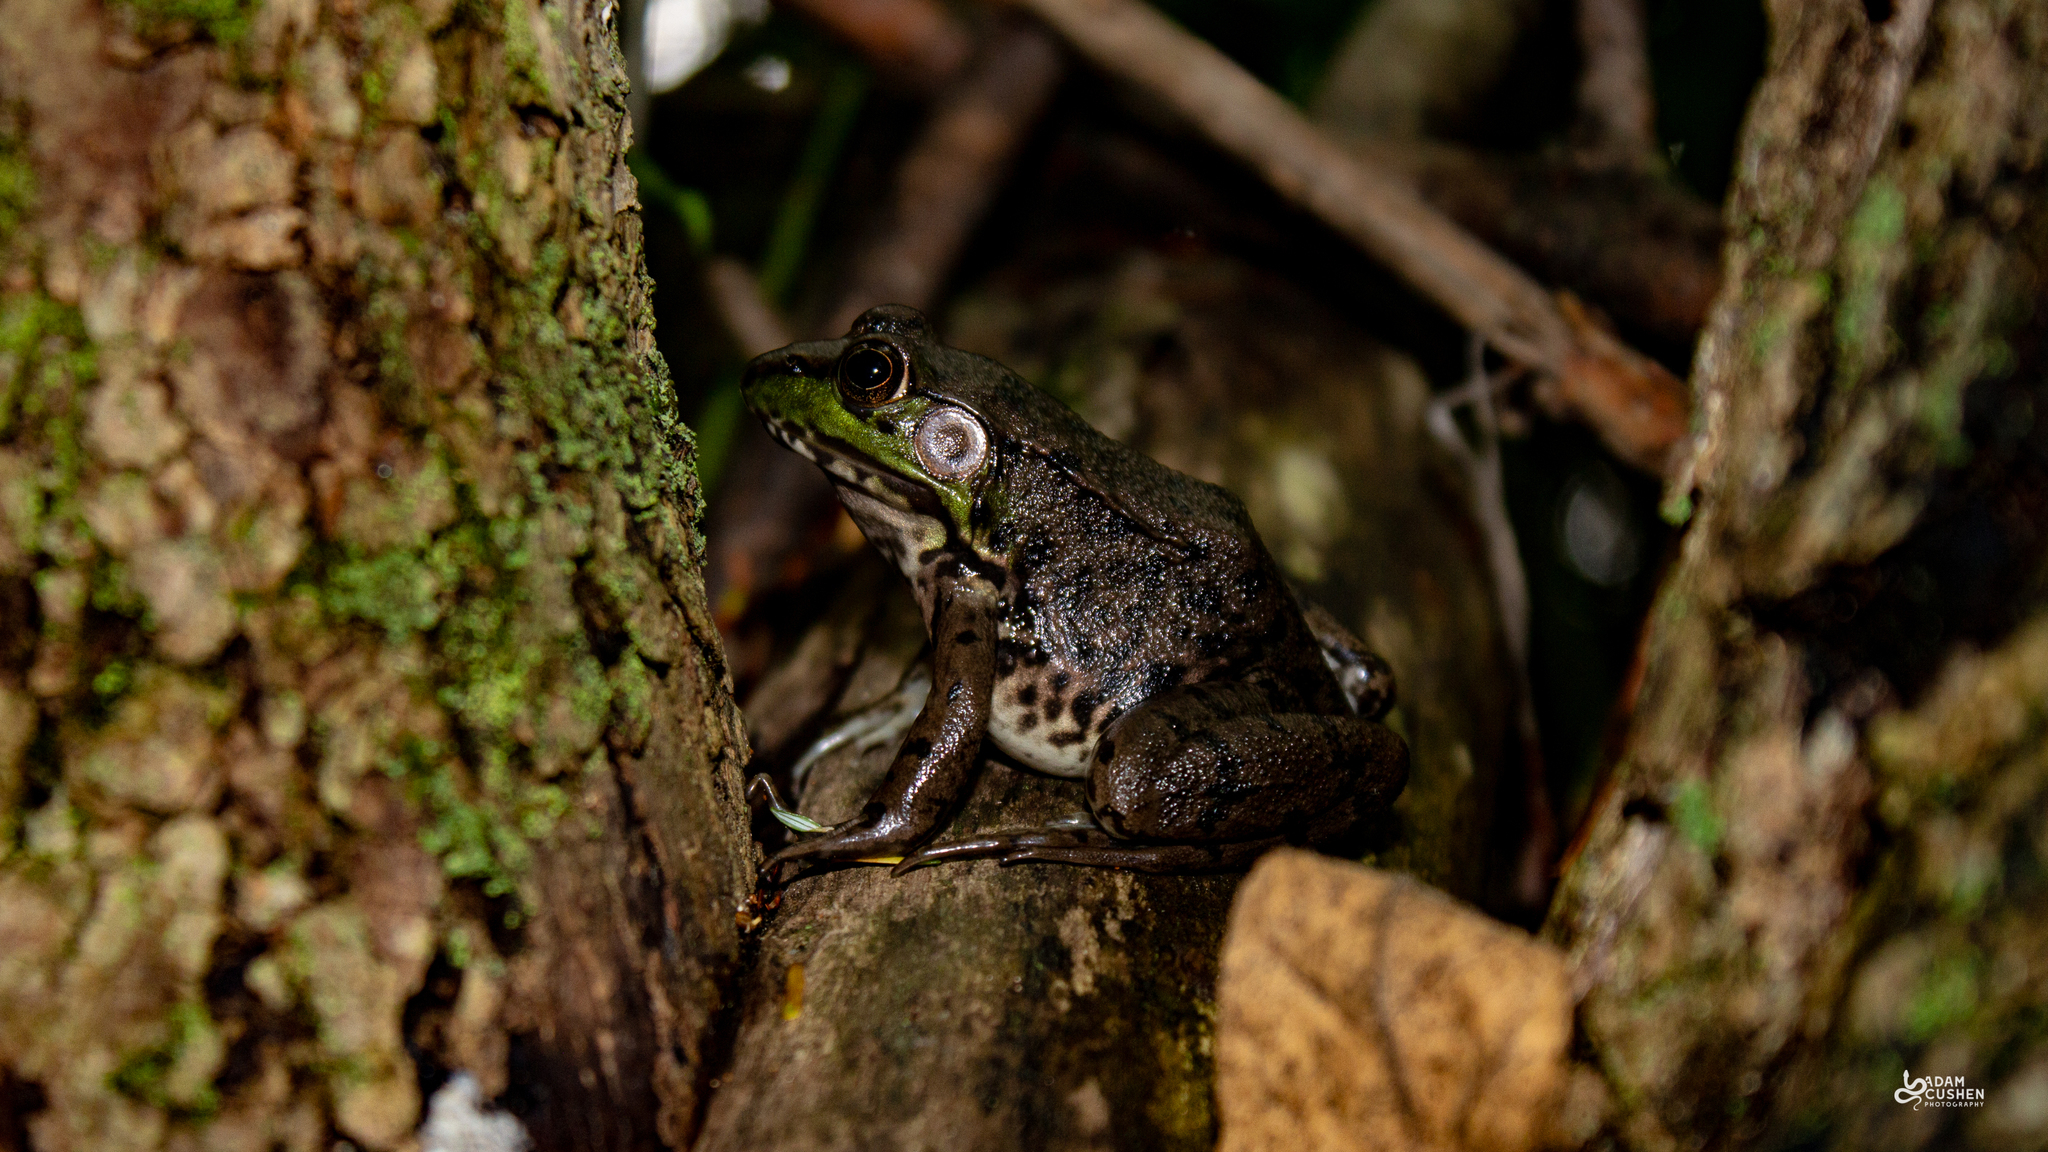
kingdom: Animalia
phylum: Chordata
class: Amphibia
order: Anura
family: Ranidae
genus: Lithobates
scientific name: Lithobates clamitans
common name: Green frog
